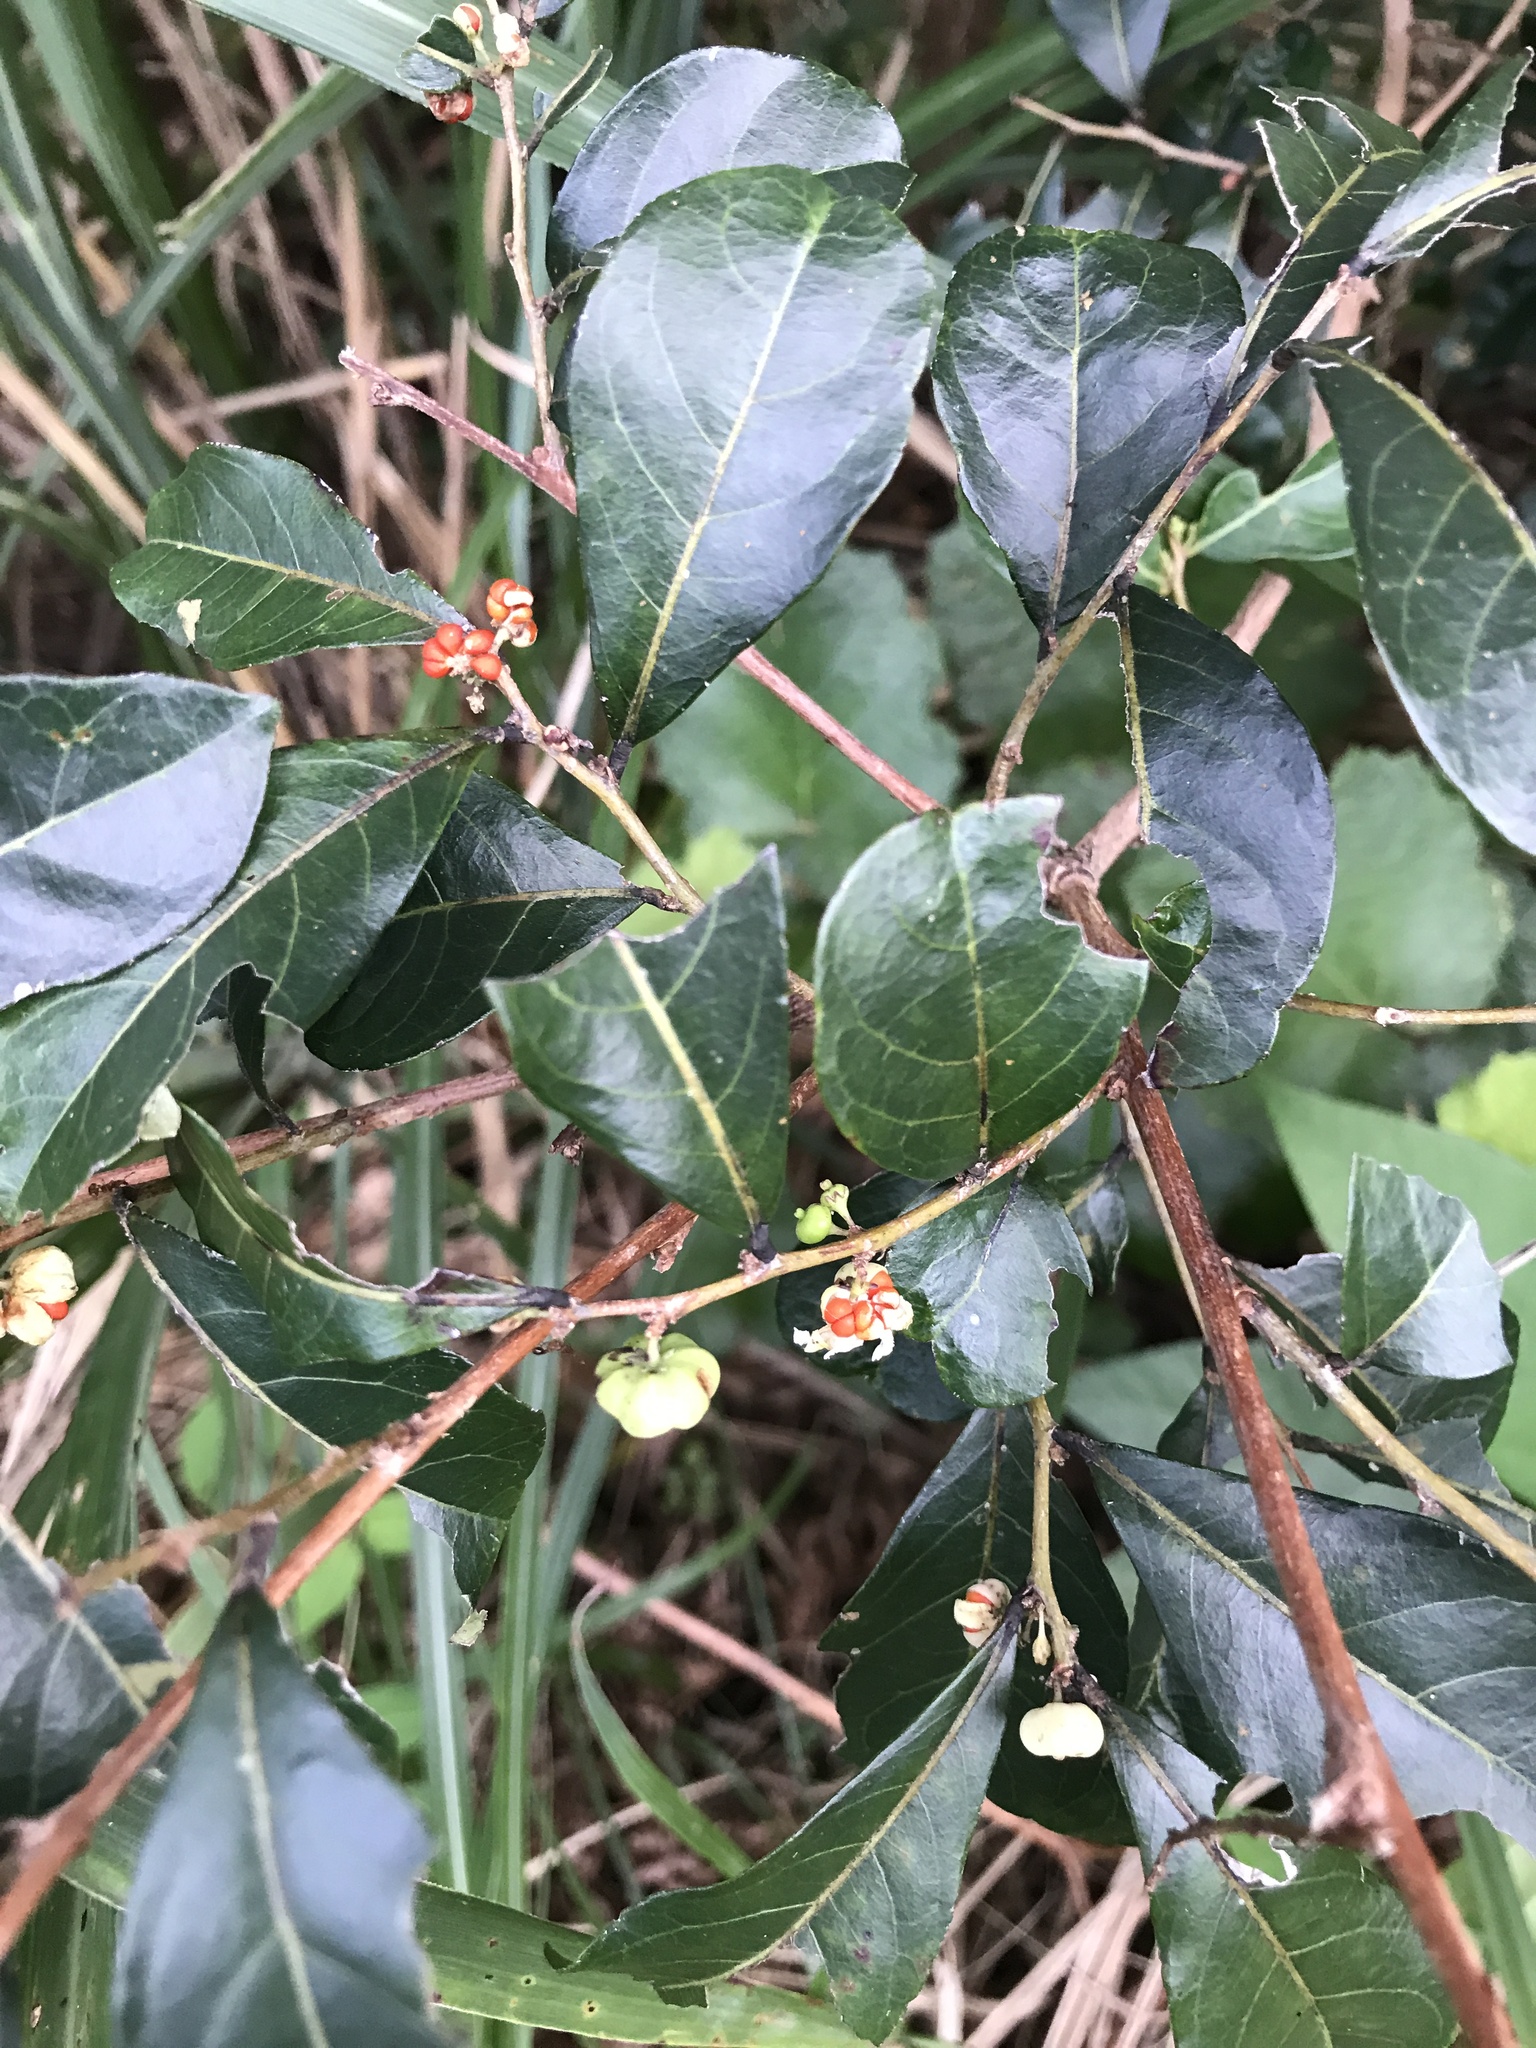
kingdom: Plantae
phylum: Tracheophyta
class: Magnoliopsida
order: Malpighiales
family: Phyllanthaceae
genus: Glochidion
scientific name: Glochidion obovatum
